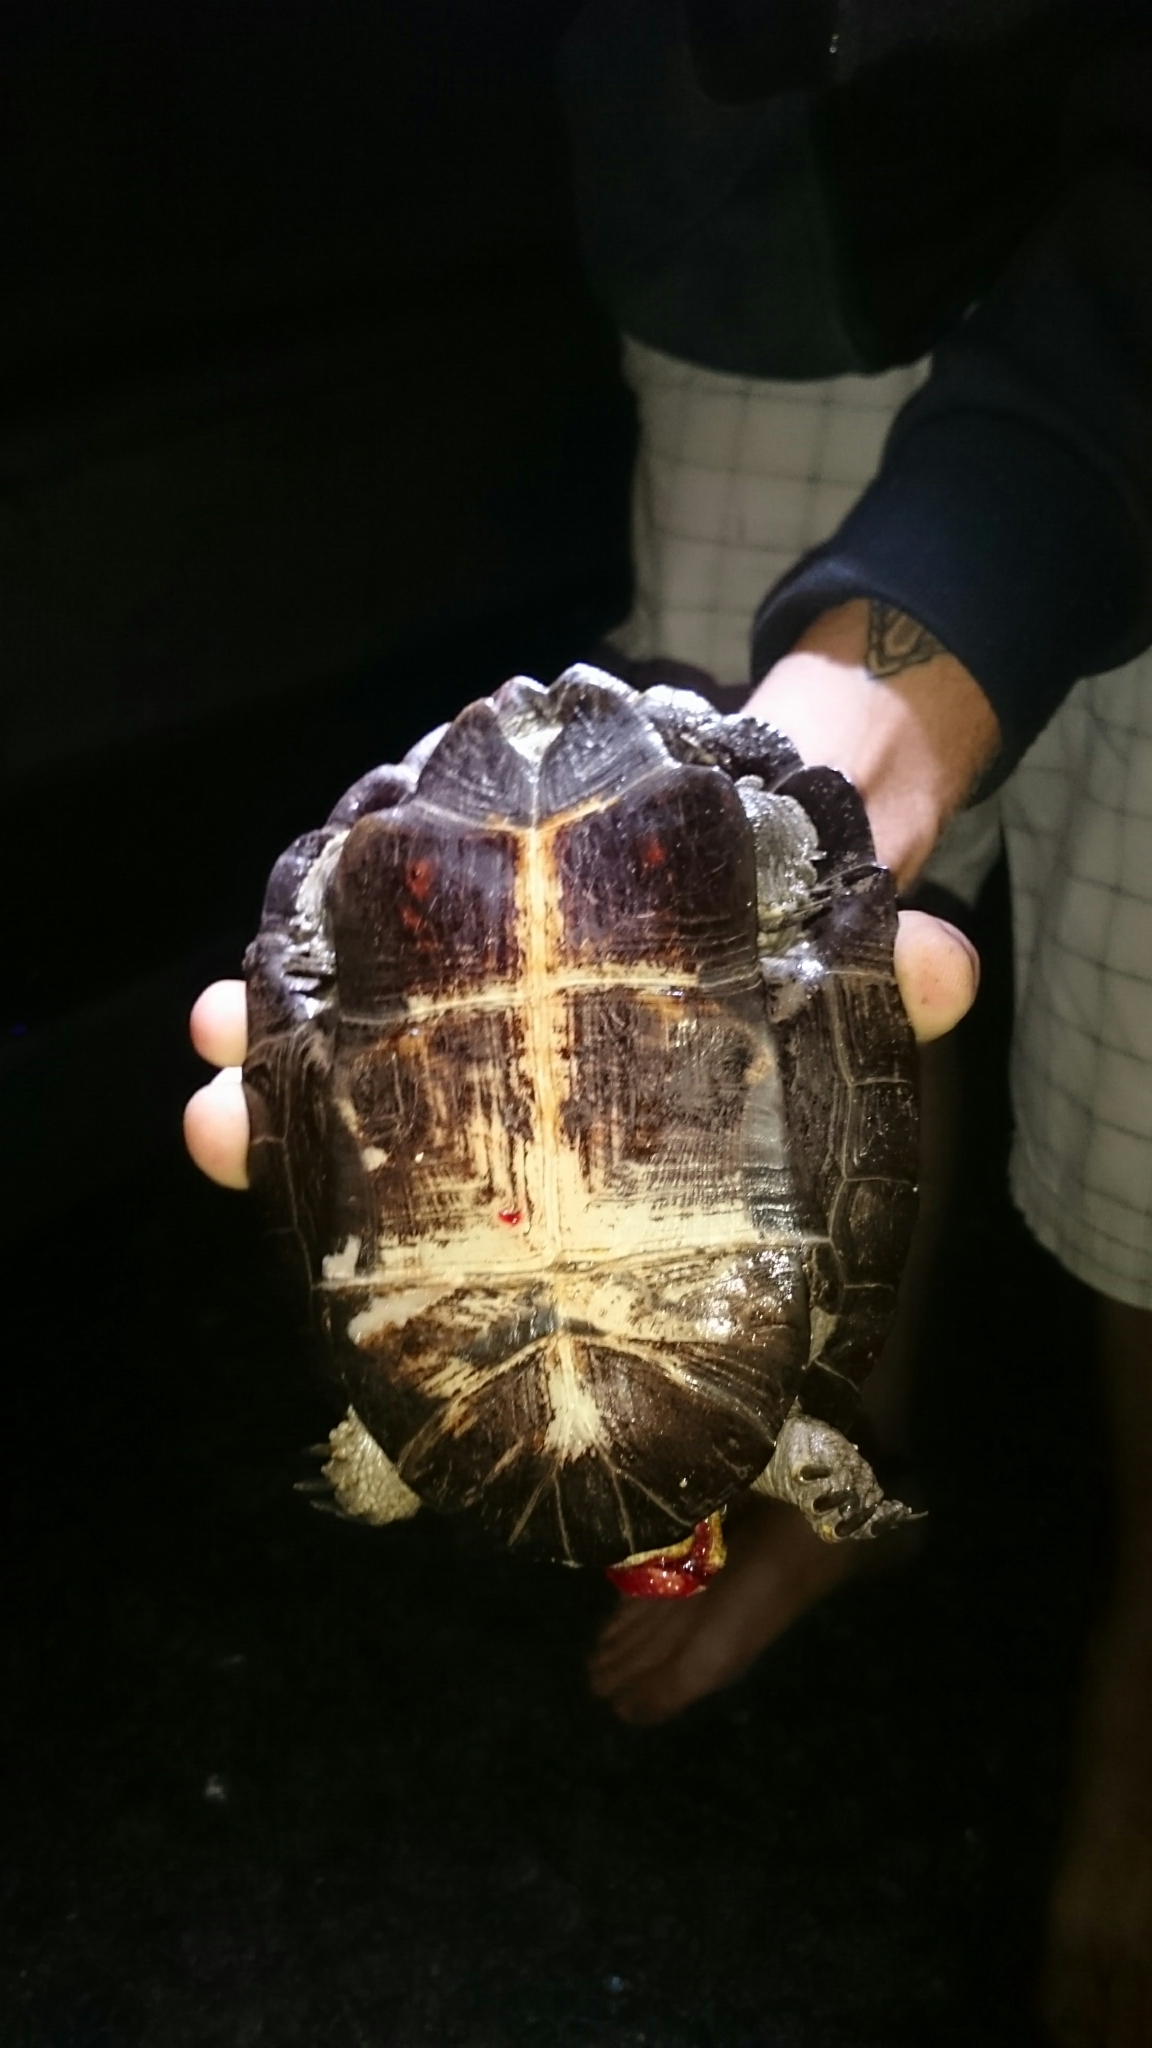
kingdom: Animalia
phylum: Chordata
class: Testudines
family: Pelomedusidae
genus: Pelusios
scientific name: Pelusios sinuatus
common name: Serrated hinged terrapin
